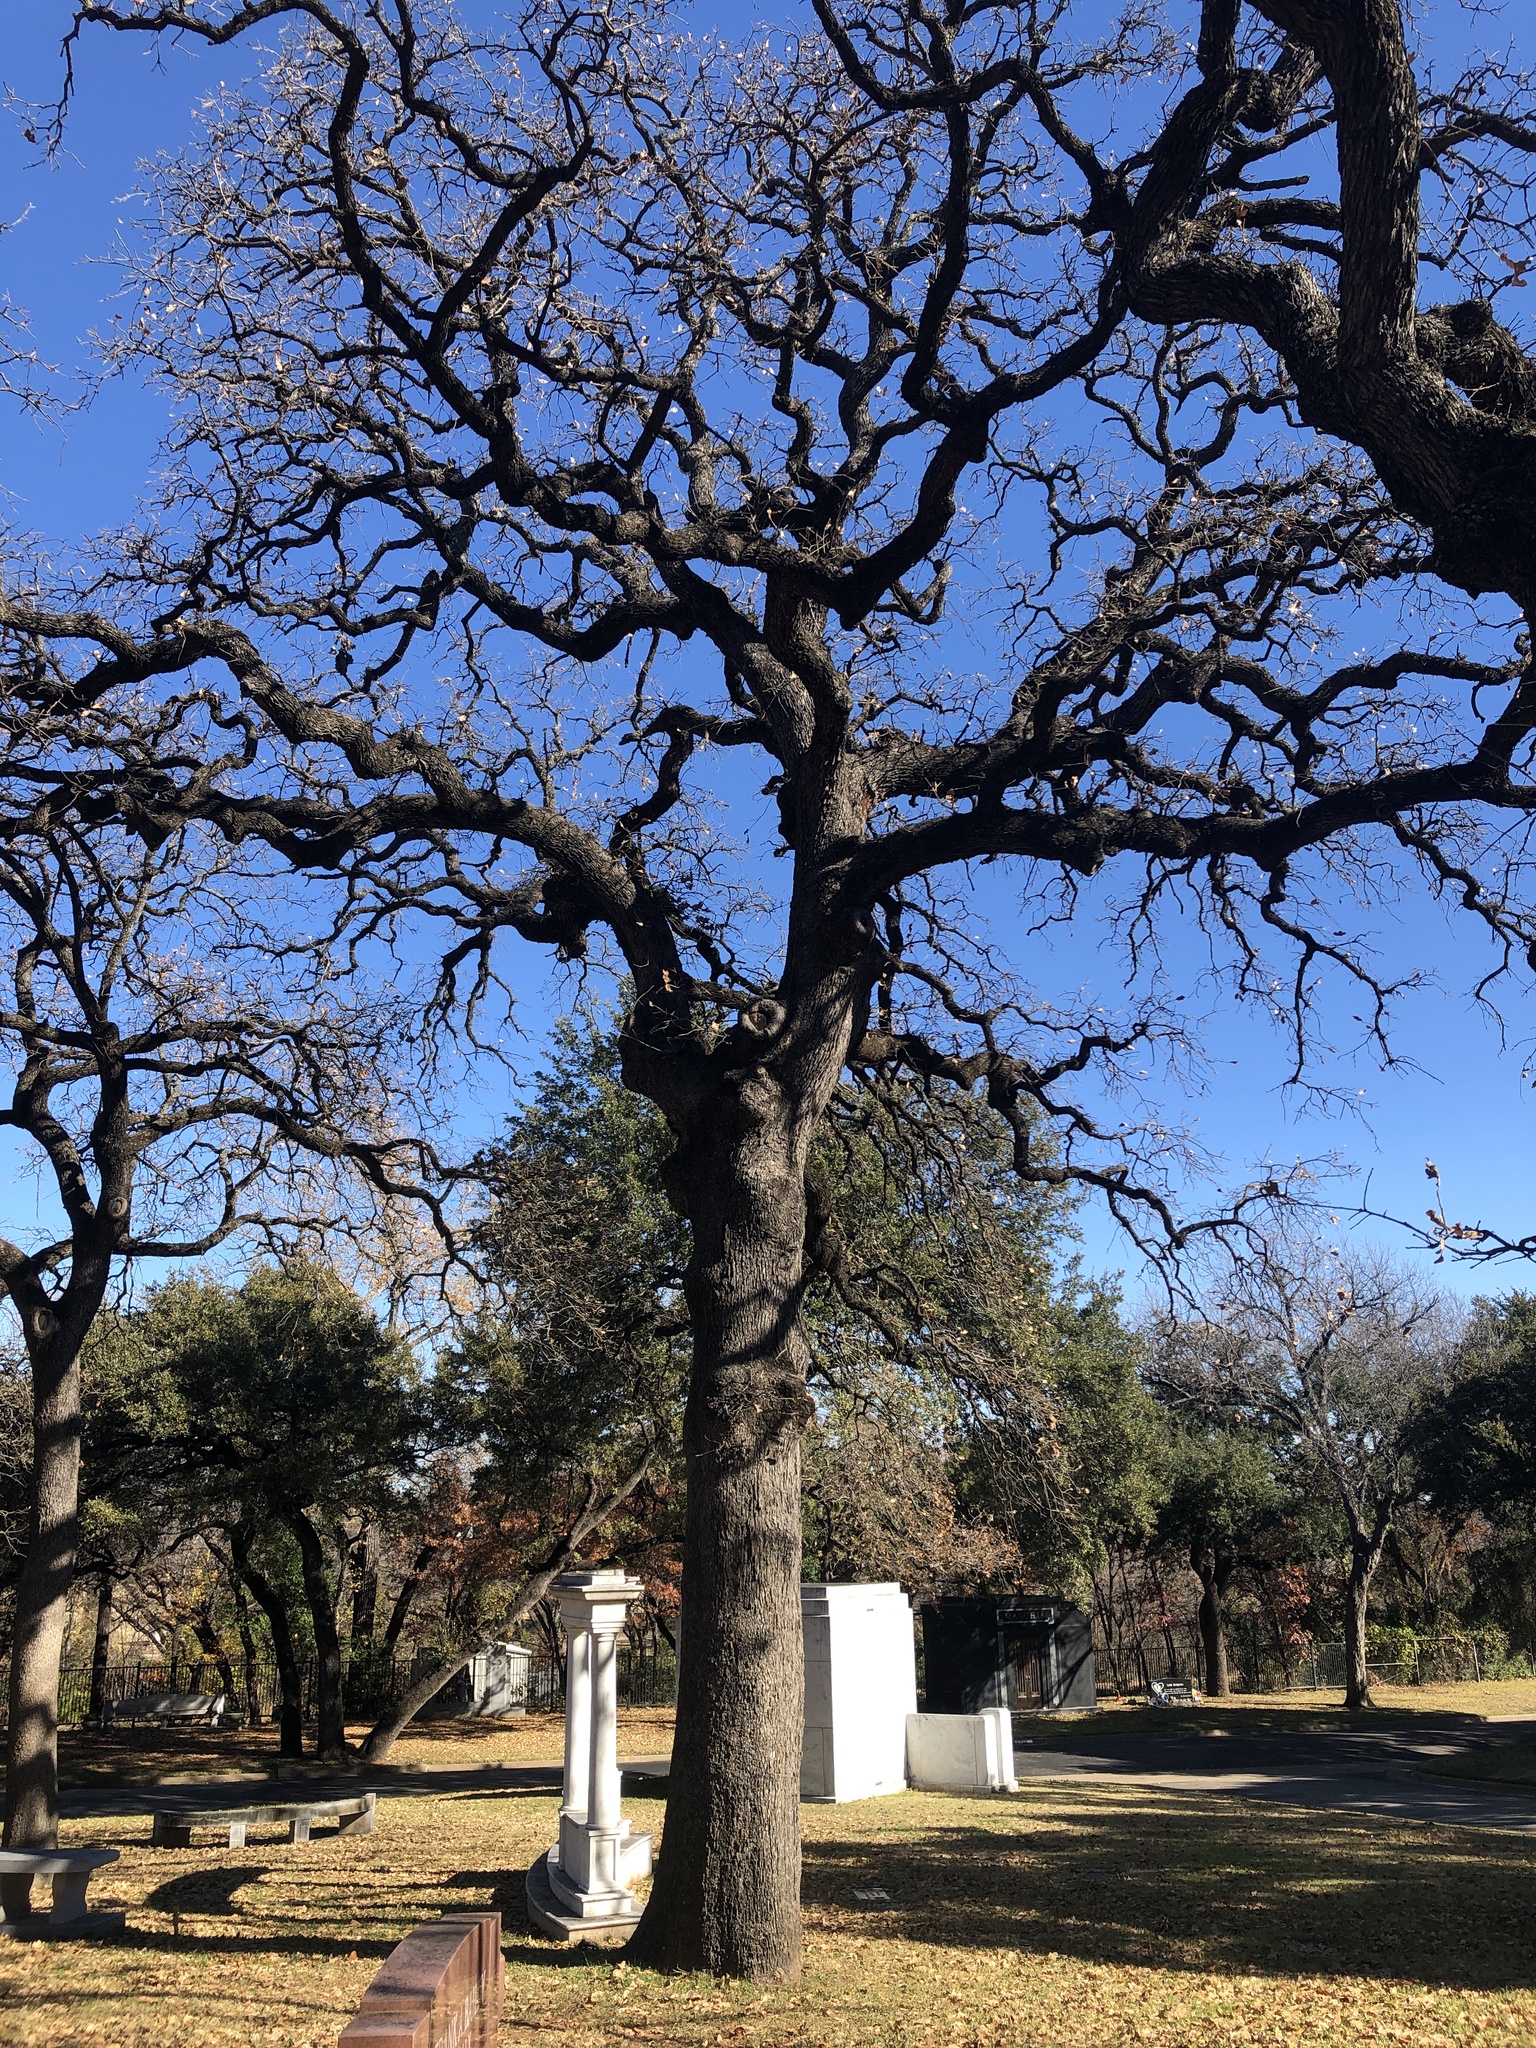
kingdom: Plantae
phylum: Tracheophyta
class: Magnoliopsida
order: Fagales
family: Fagaceae
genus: Quercus
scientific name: Quercus stellata
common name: Post oak
